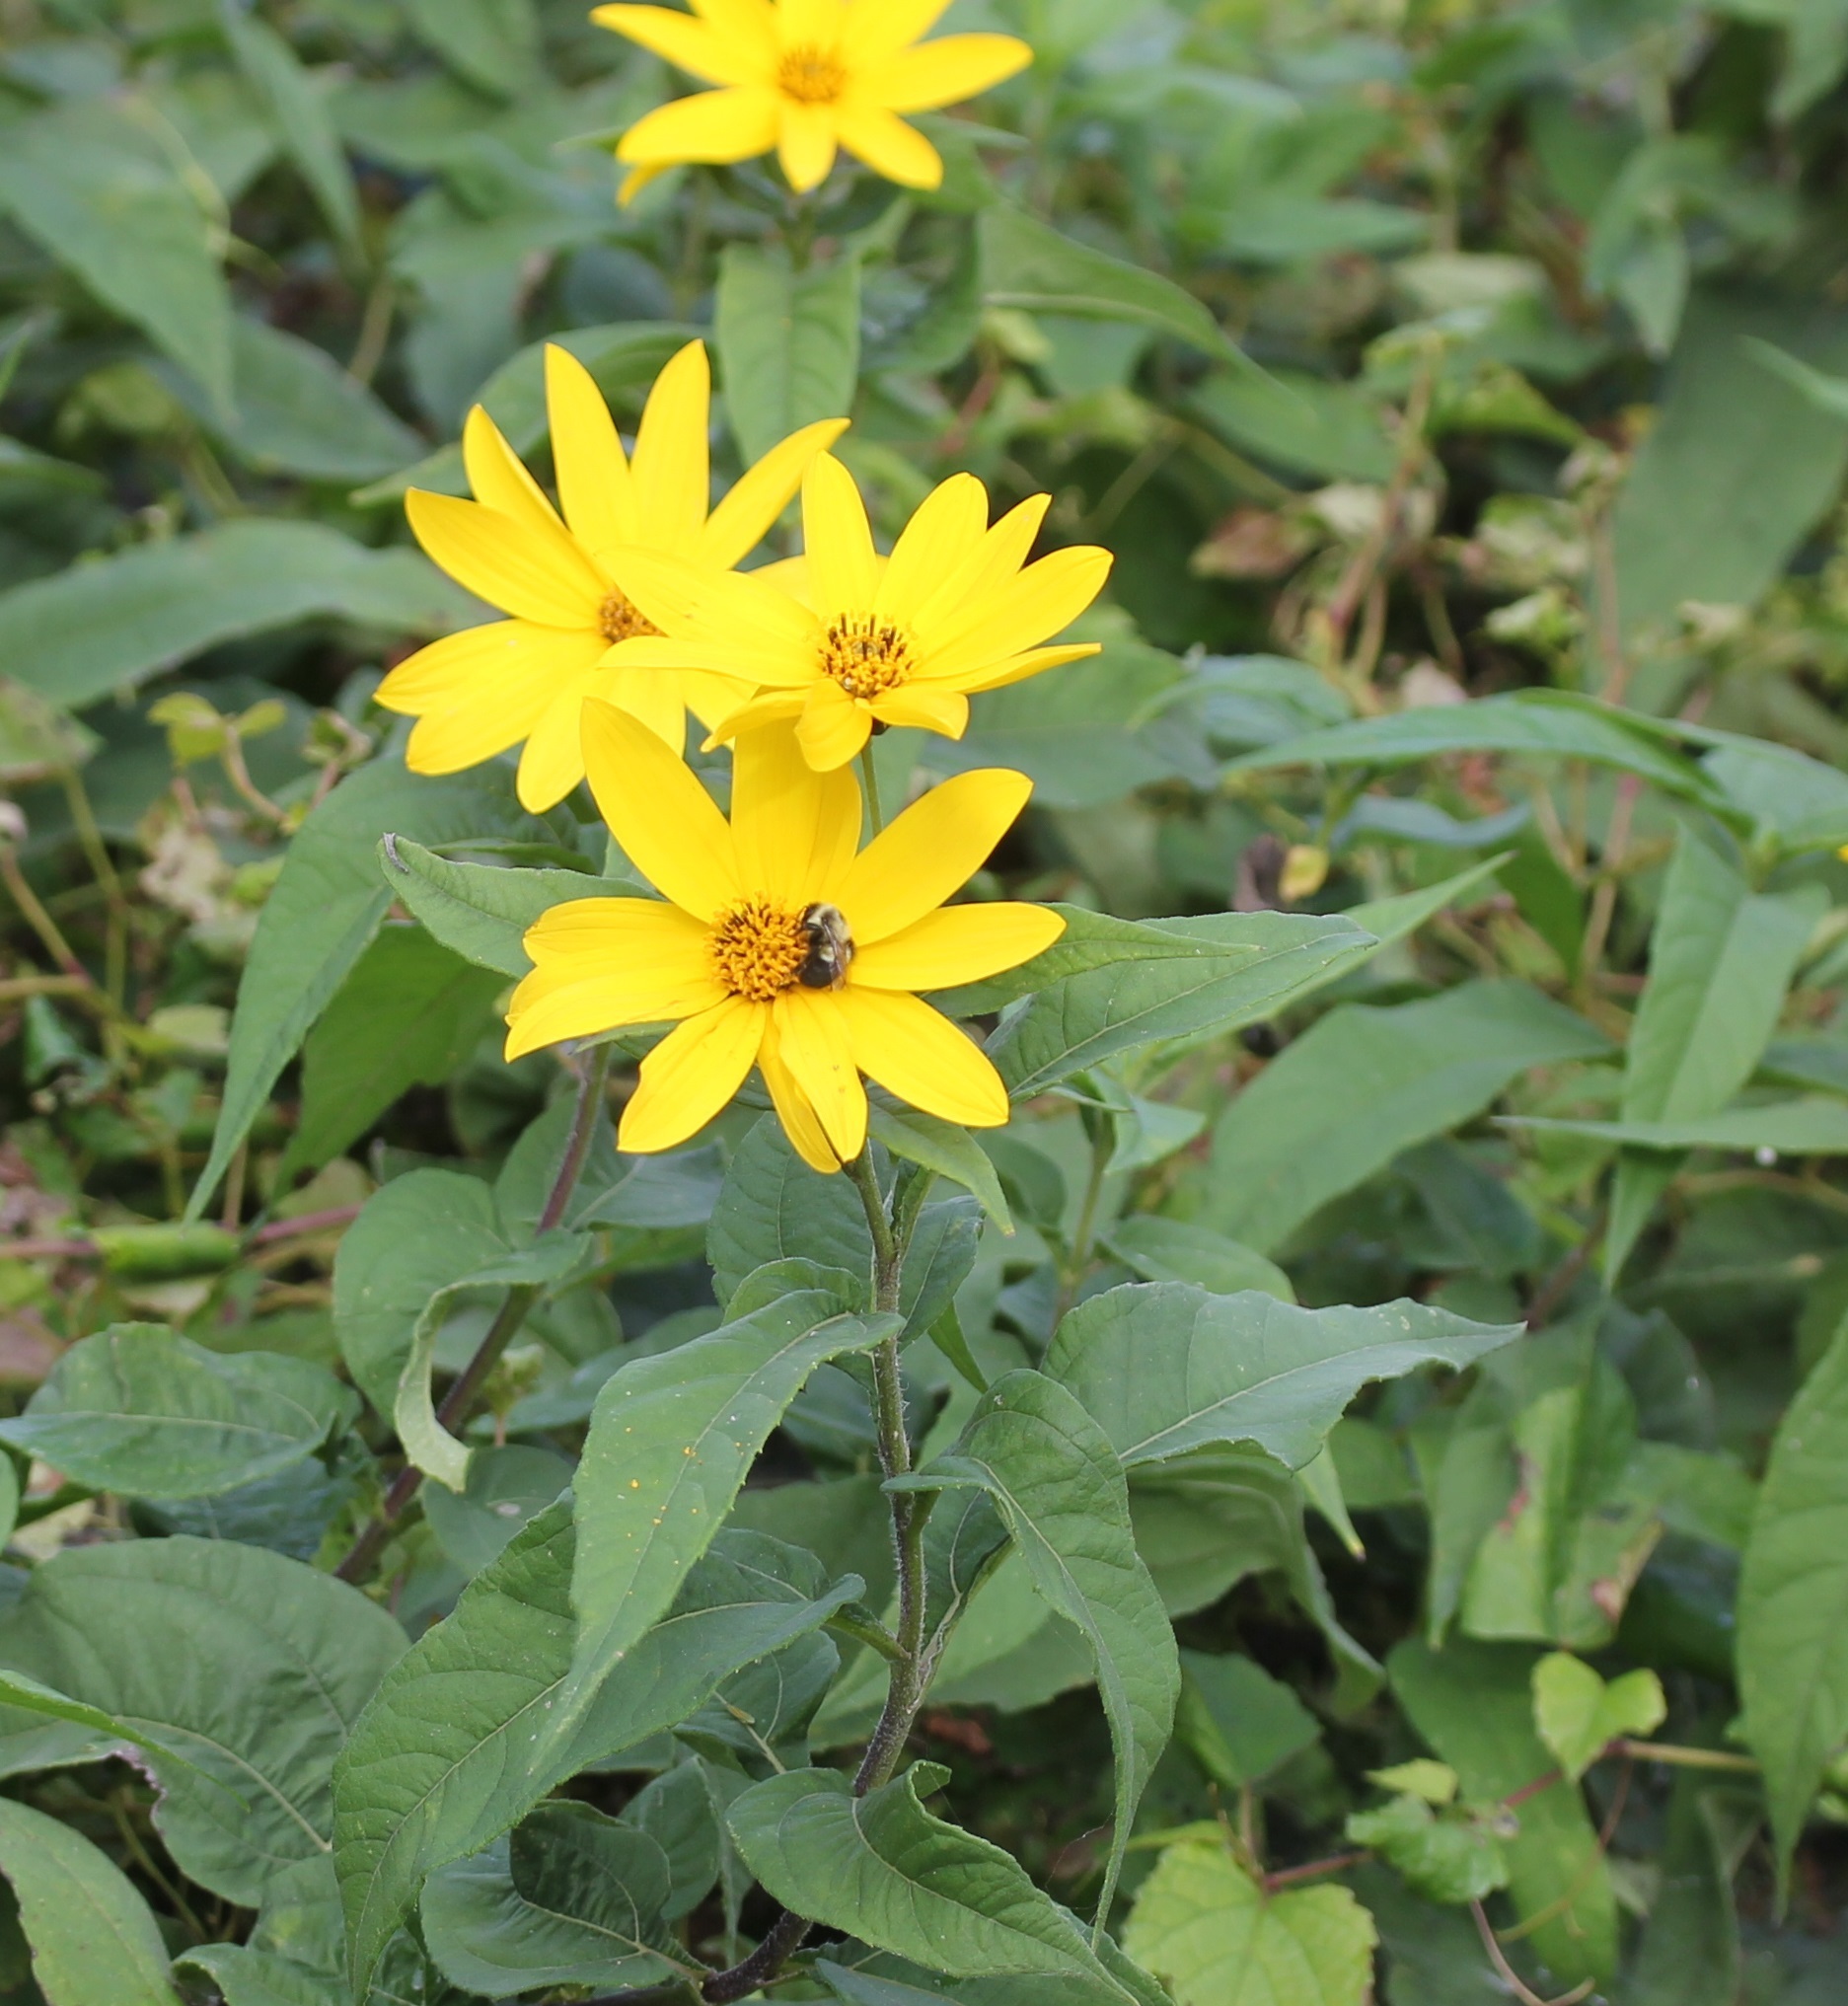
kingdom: Animalia
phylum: Arthropoda
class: Insecta
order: Hymenoptera
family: Apidae
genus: Bombus
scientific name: Bombus impatiens
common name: Common eastern bumble bee
